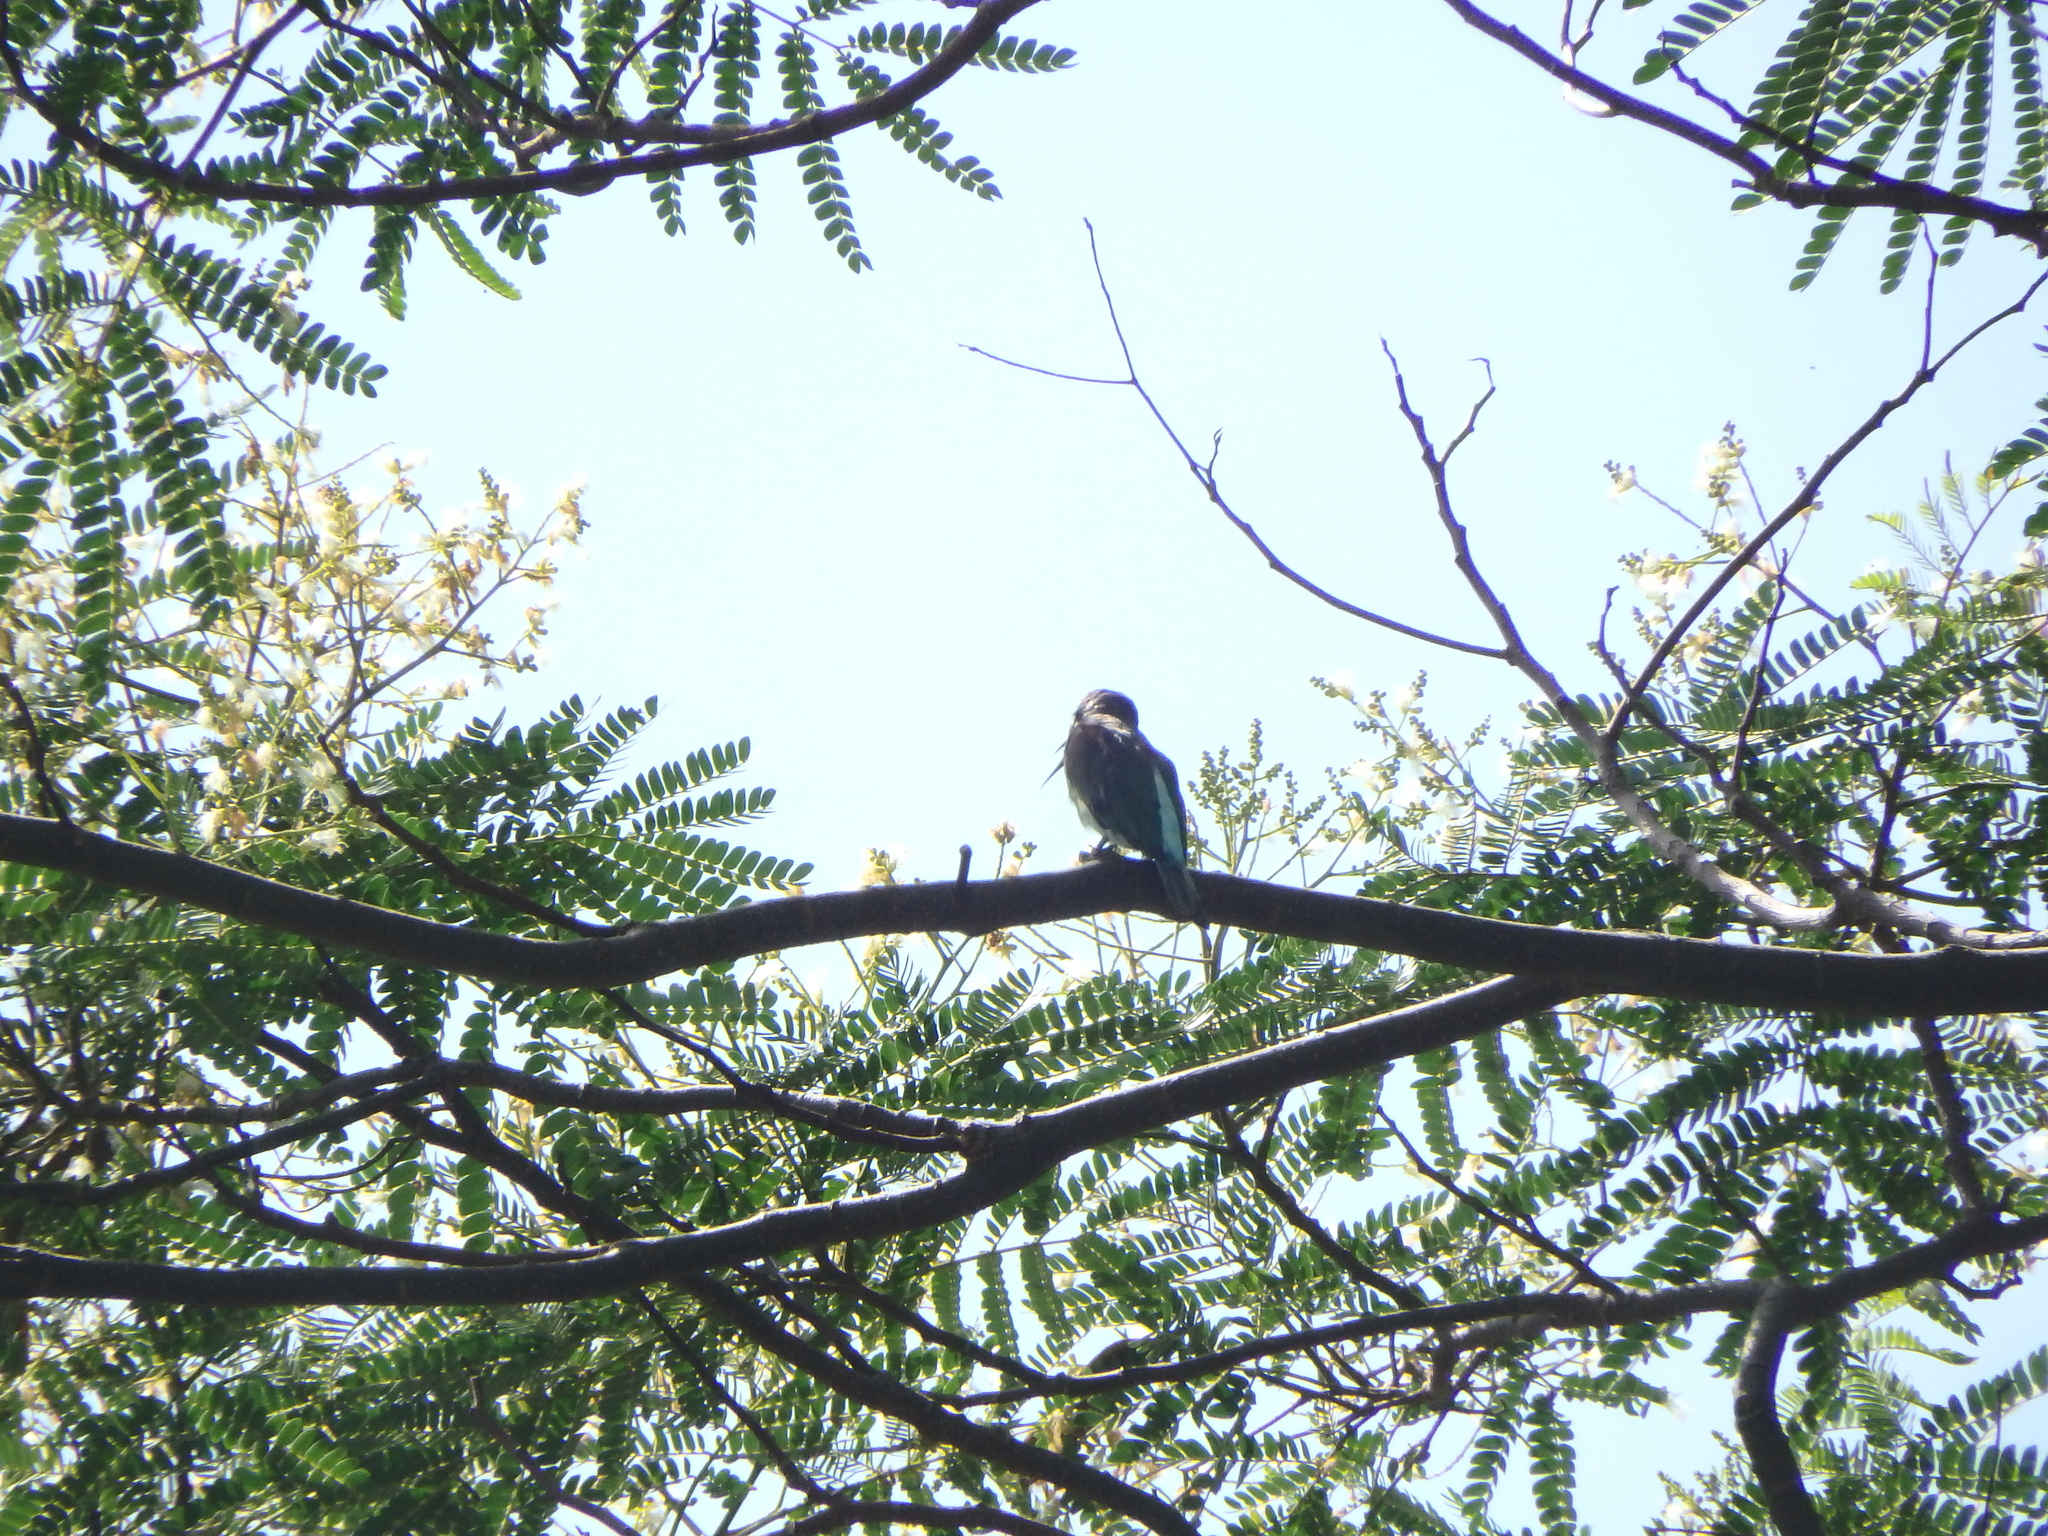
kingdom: Animalia
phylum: Chordata
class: Aves
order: Coraciiformes
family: Meropidae
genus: Merops
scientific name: Merops viridis
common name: Blue-throated bee-eater
